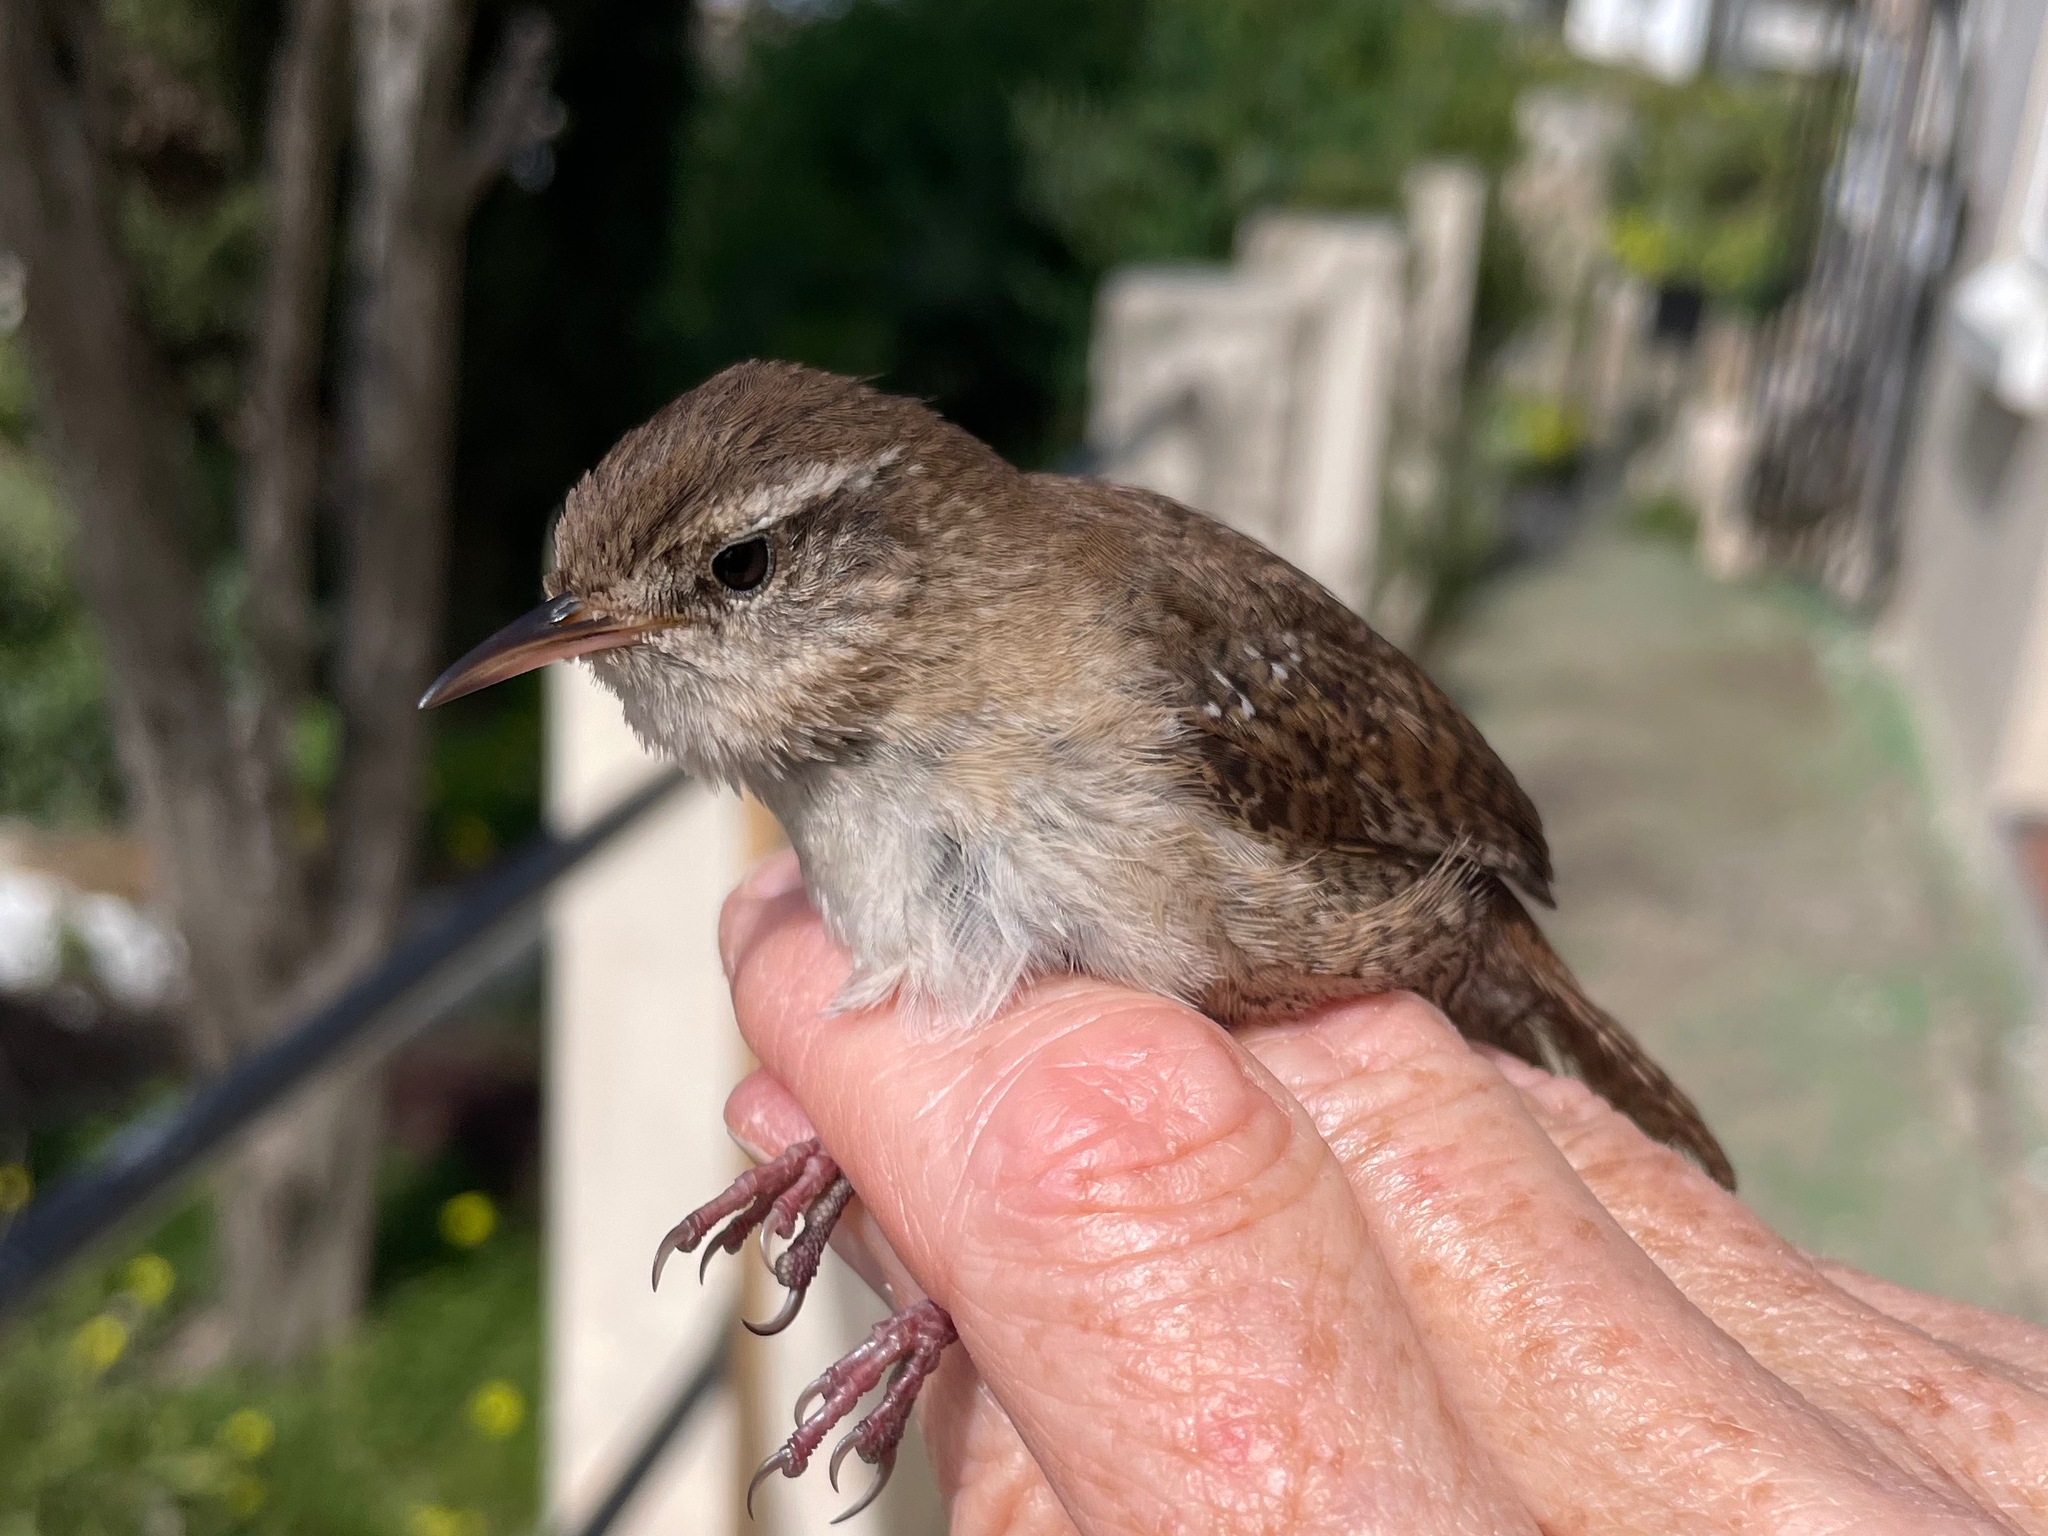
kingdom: Animalia
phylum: Chordata
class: Aves
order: Passeriformes
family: Troglodytidae
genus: Troglodytes
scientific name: Troglodytes troglodytes
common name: Eurasian wren
